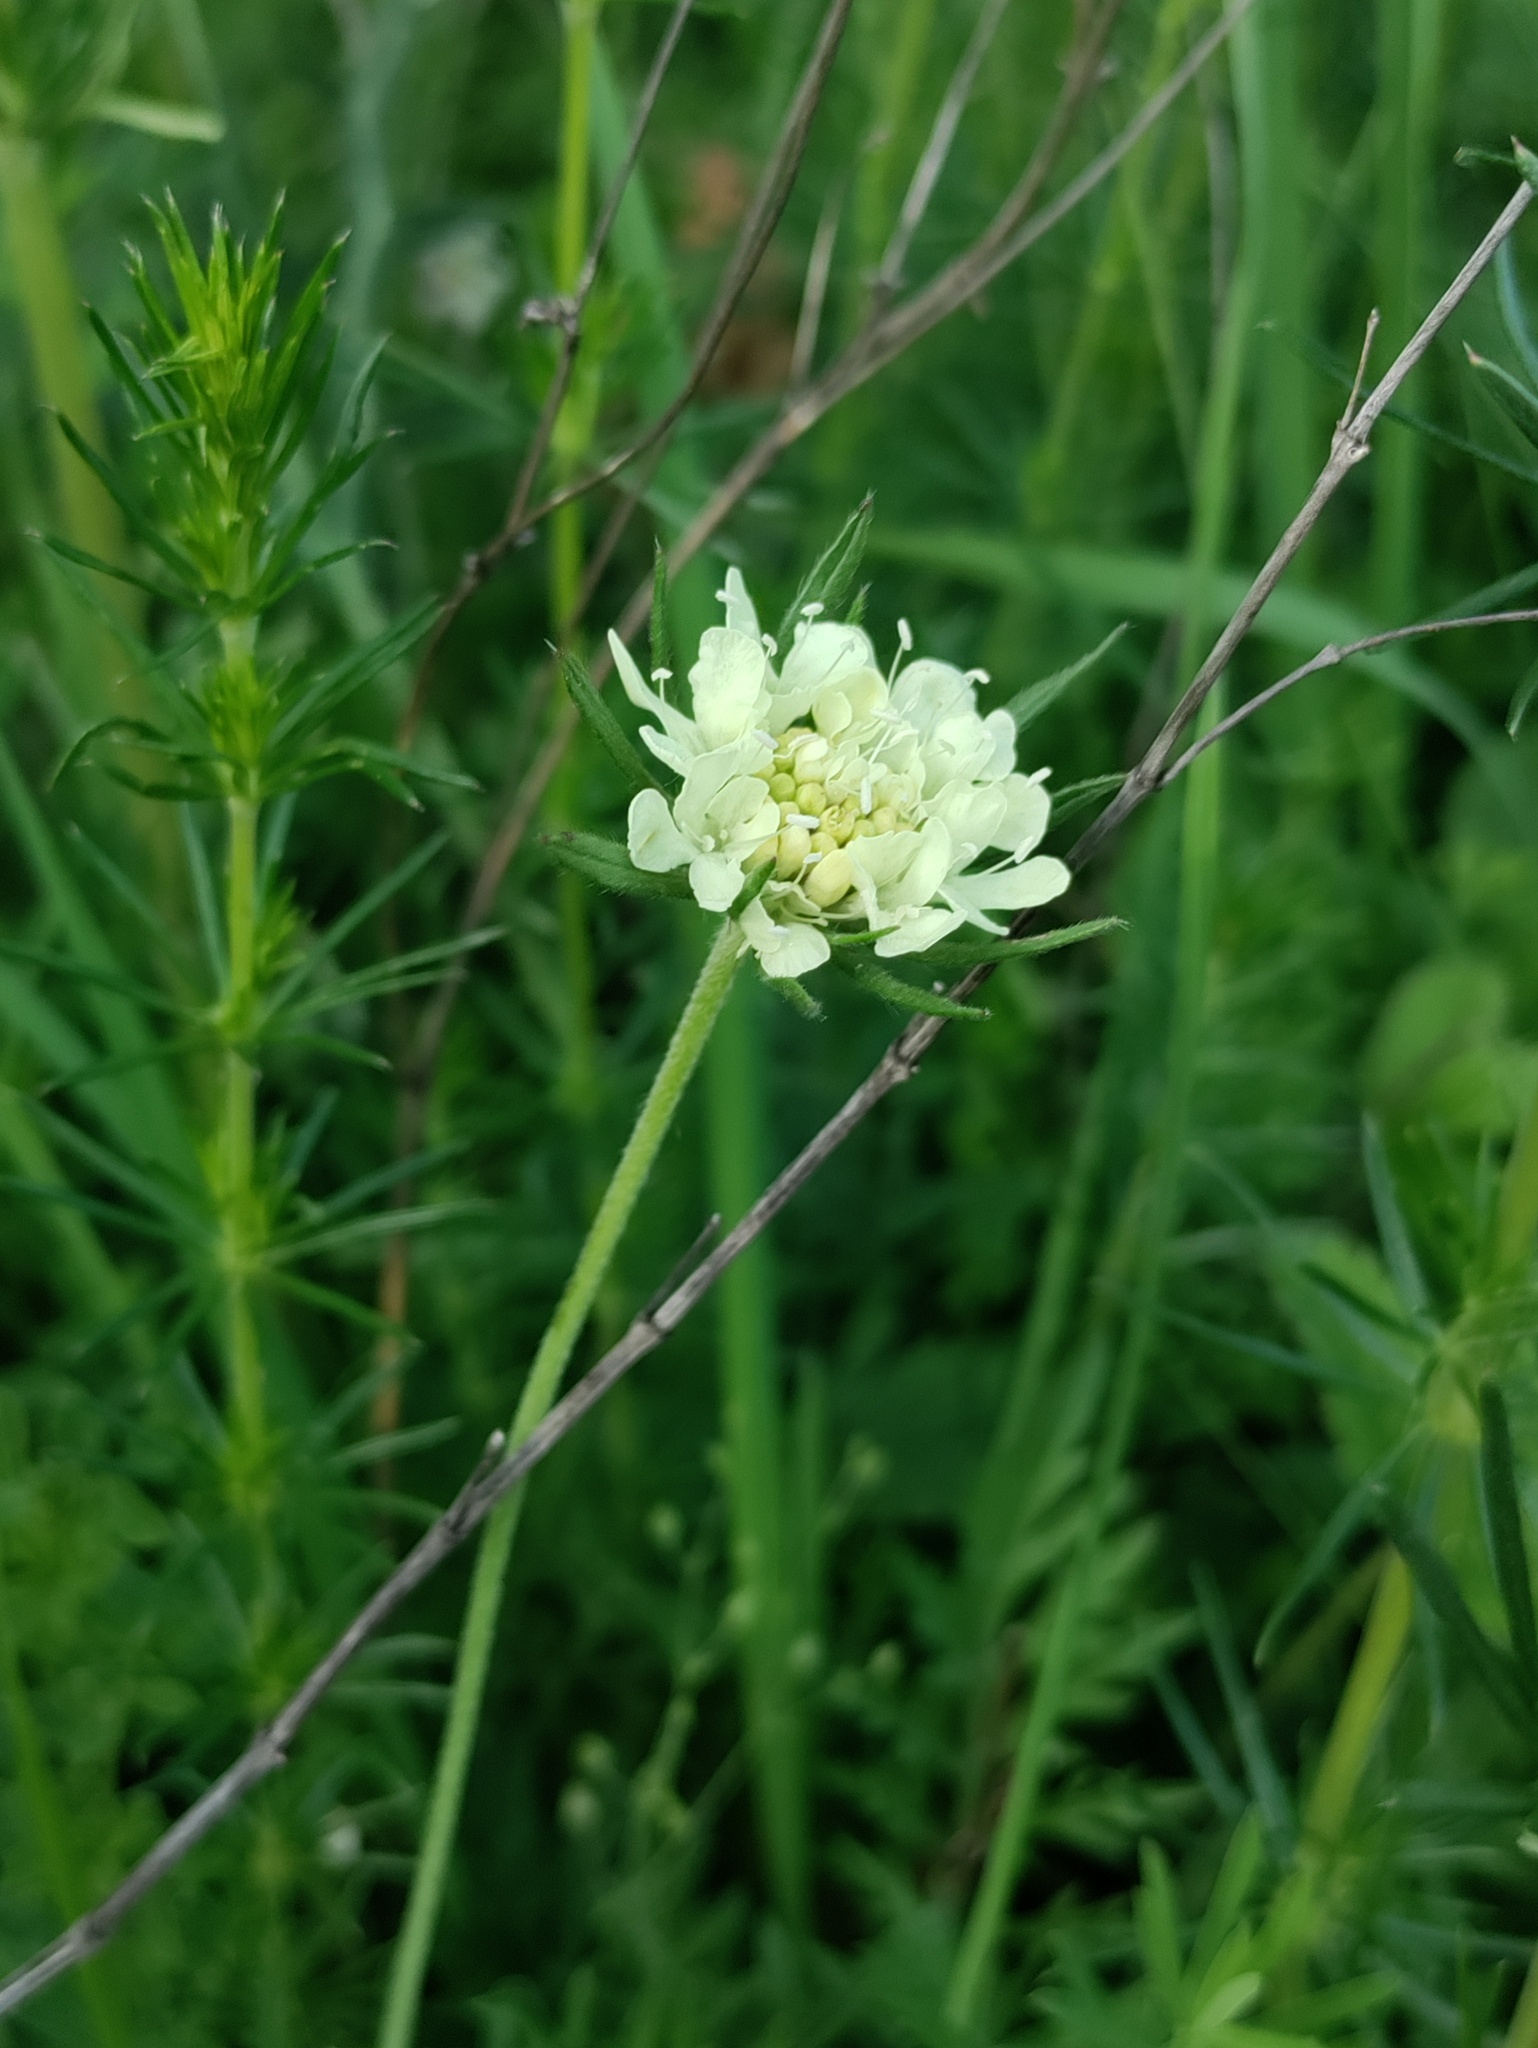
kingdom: Plantae
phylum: Tracheophyta
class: Magnoliopsida
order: Dipsacales
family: Caprifoliaceae
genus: Scabiosa
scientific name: Scabiosa ochroleuca
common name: Cream pincushions
